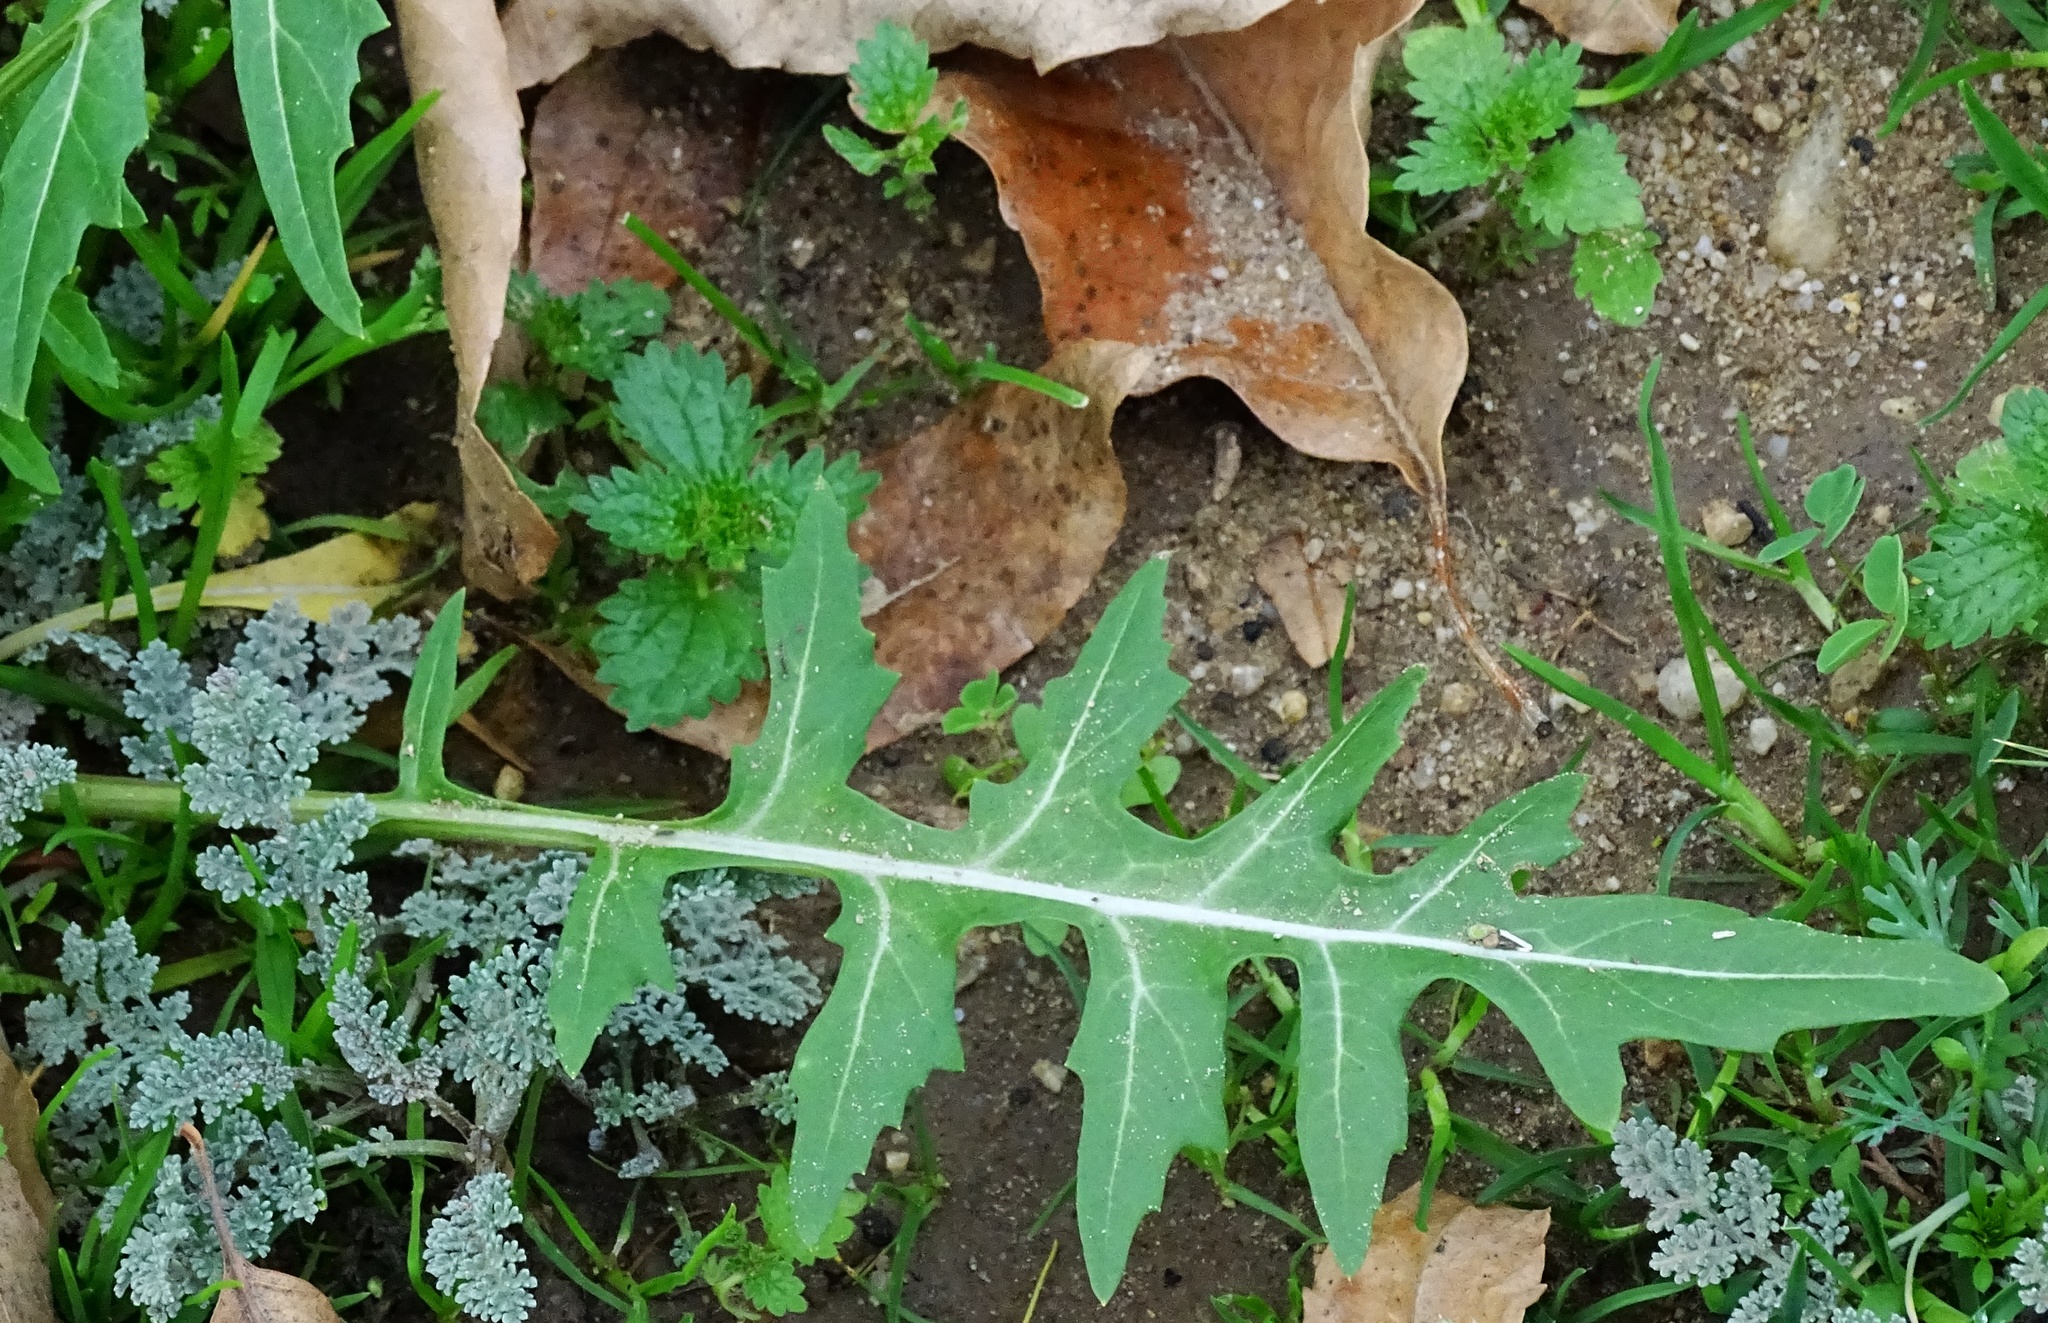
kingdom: Plantae
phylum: Tracheophyta
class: Magnoliopsida
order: Brassicales
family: Brassicaceae
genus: Sisymbrium
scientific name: Sisymbrium irio
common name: London rocket
